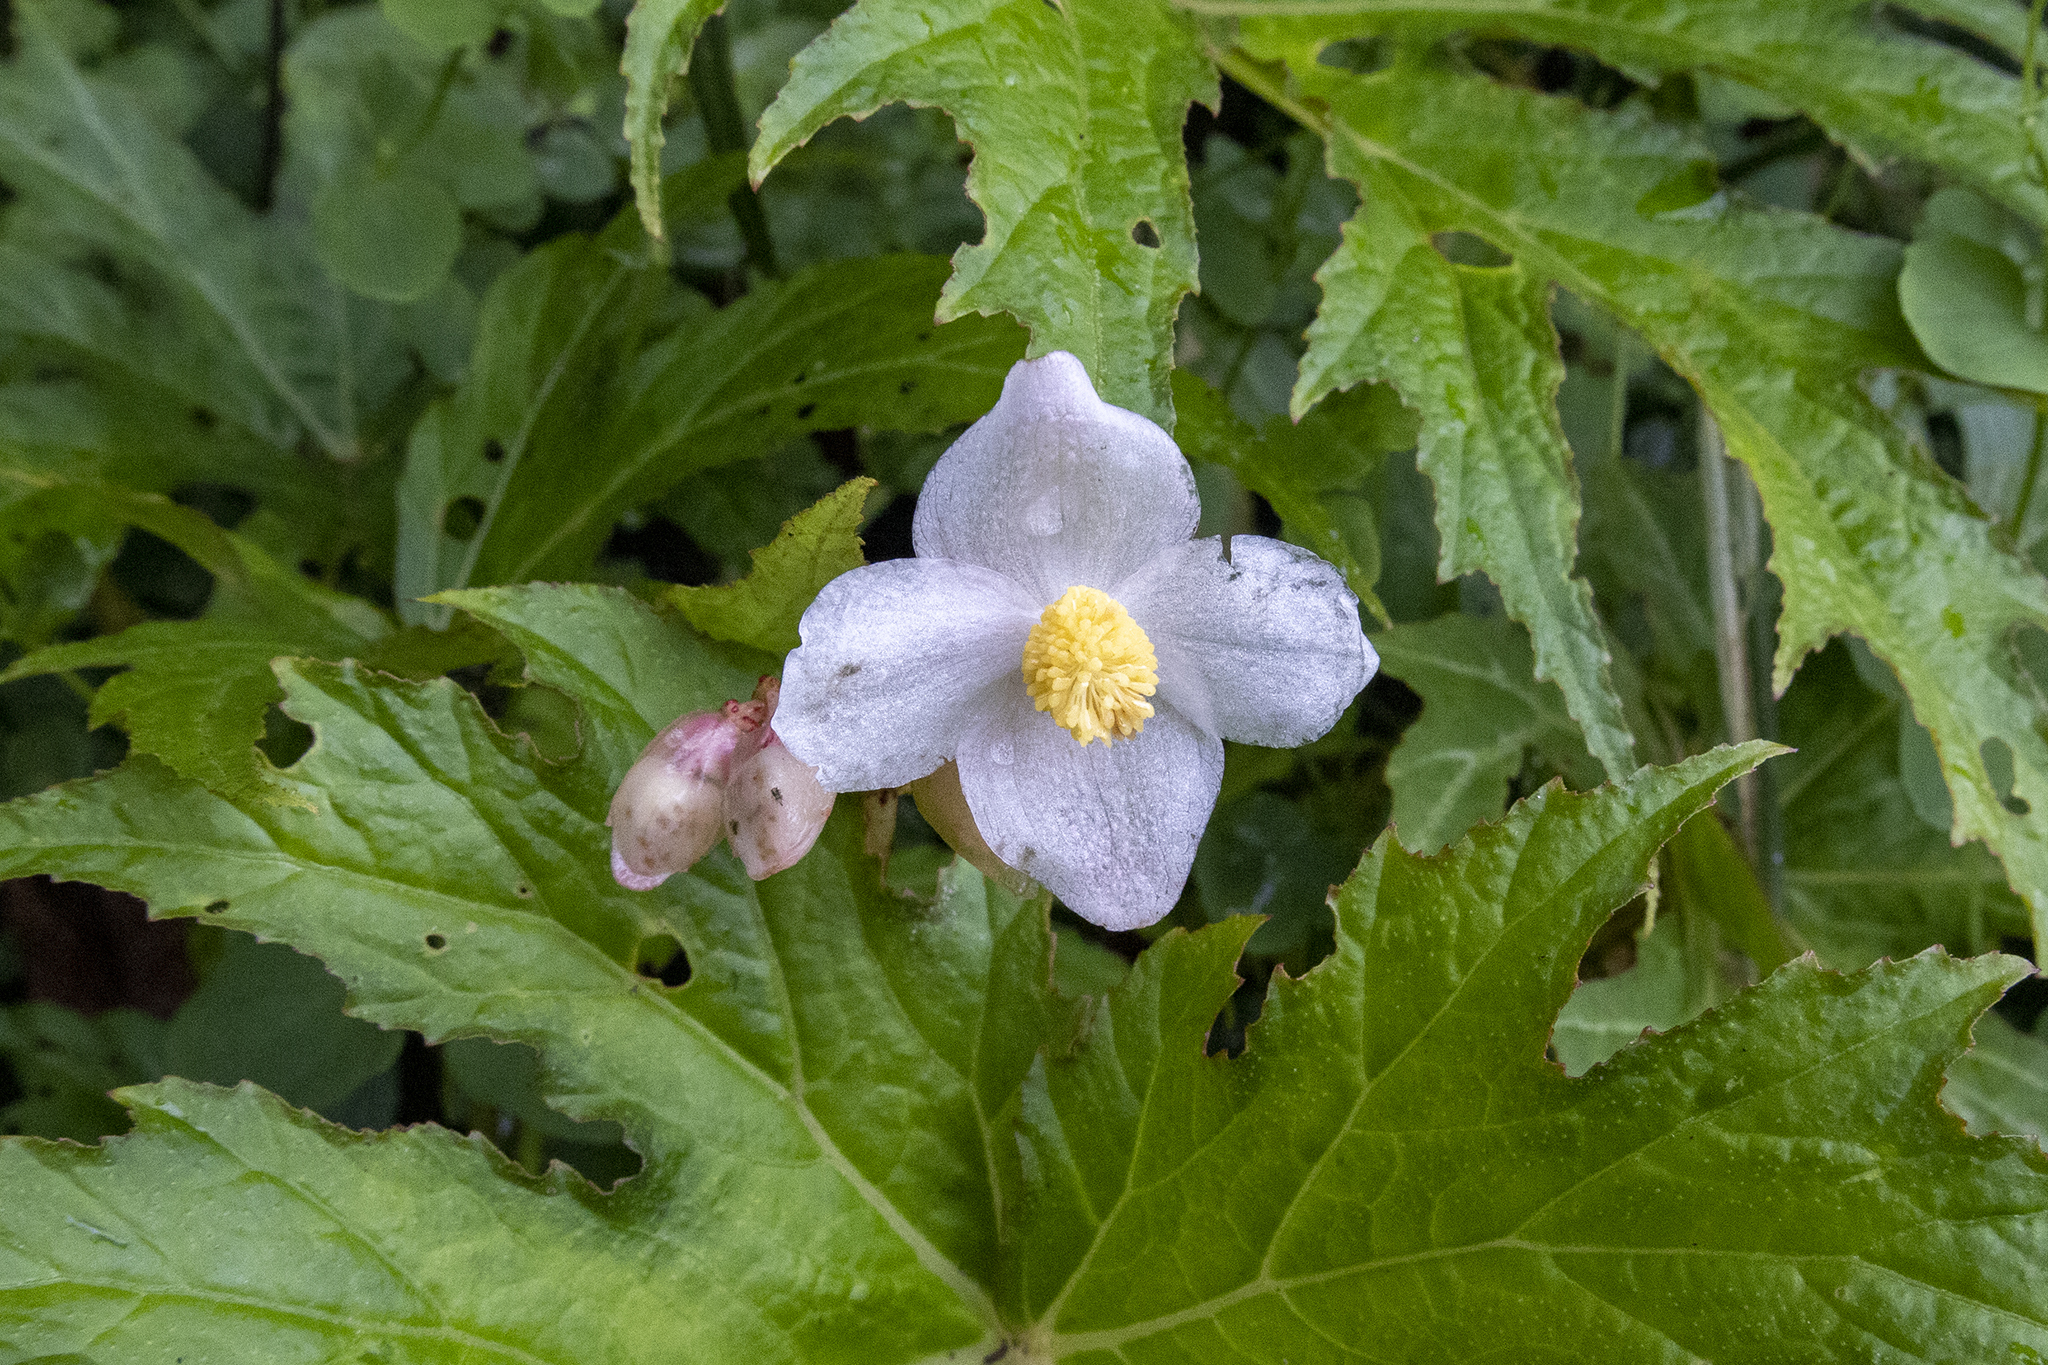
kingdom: Plantae
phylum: Tracheophyta
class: Magnoliopsida
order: Cucurbitales
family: Begoniaceae
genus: Begonia
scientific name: Begonia panchtharensis
